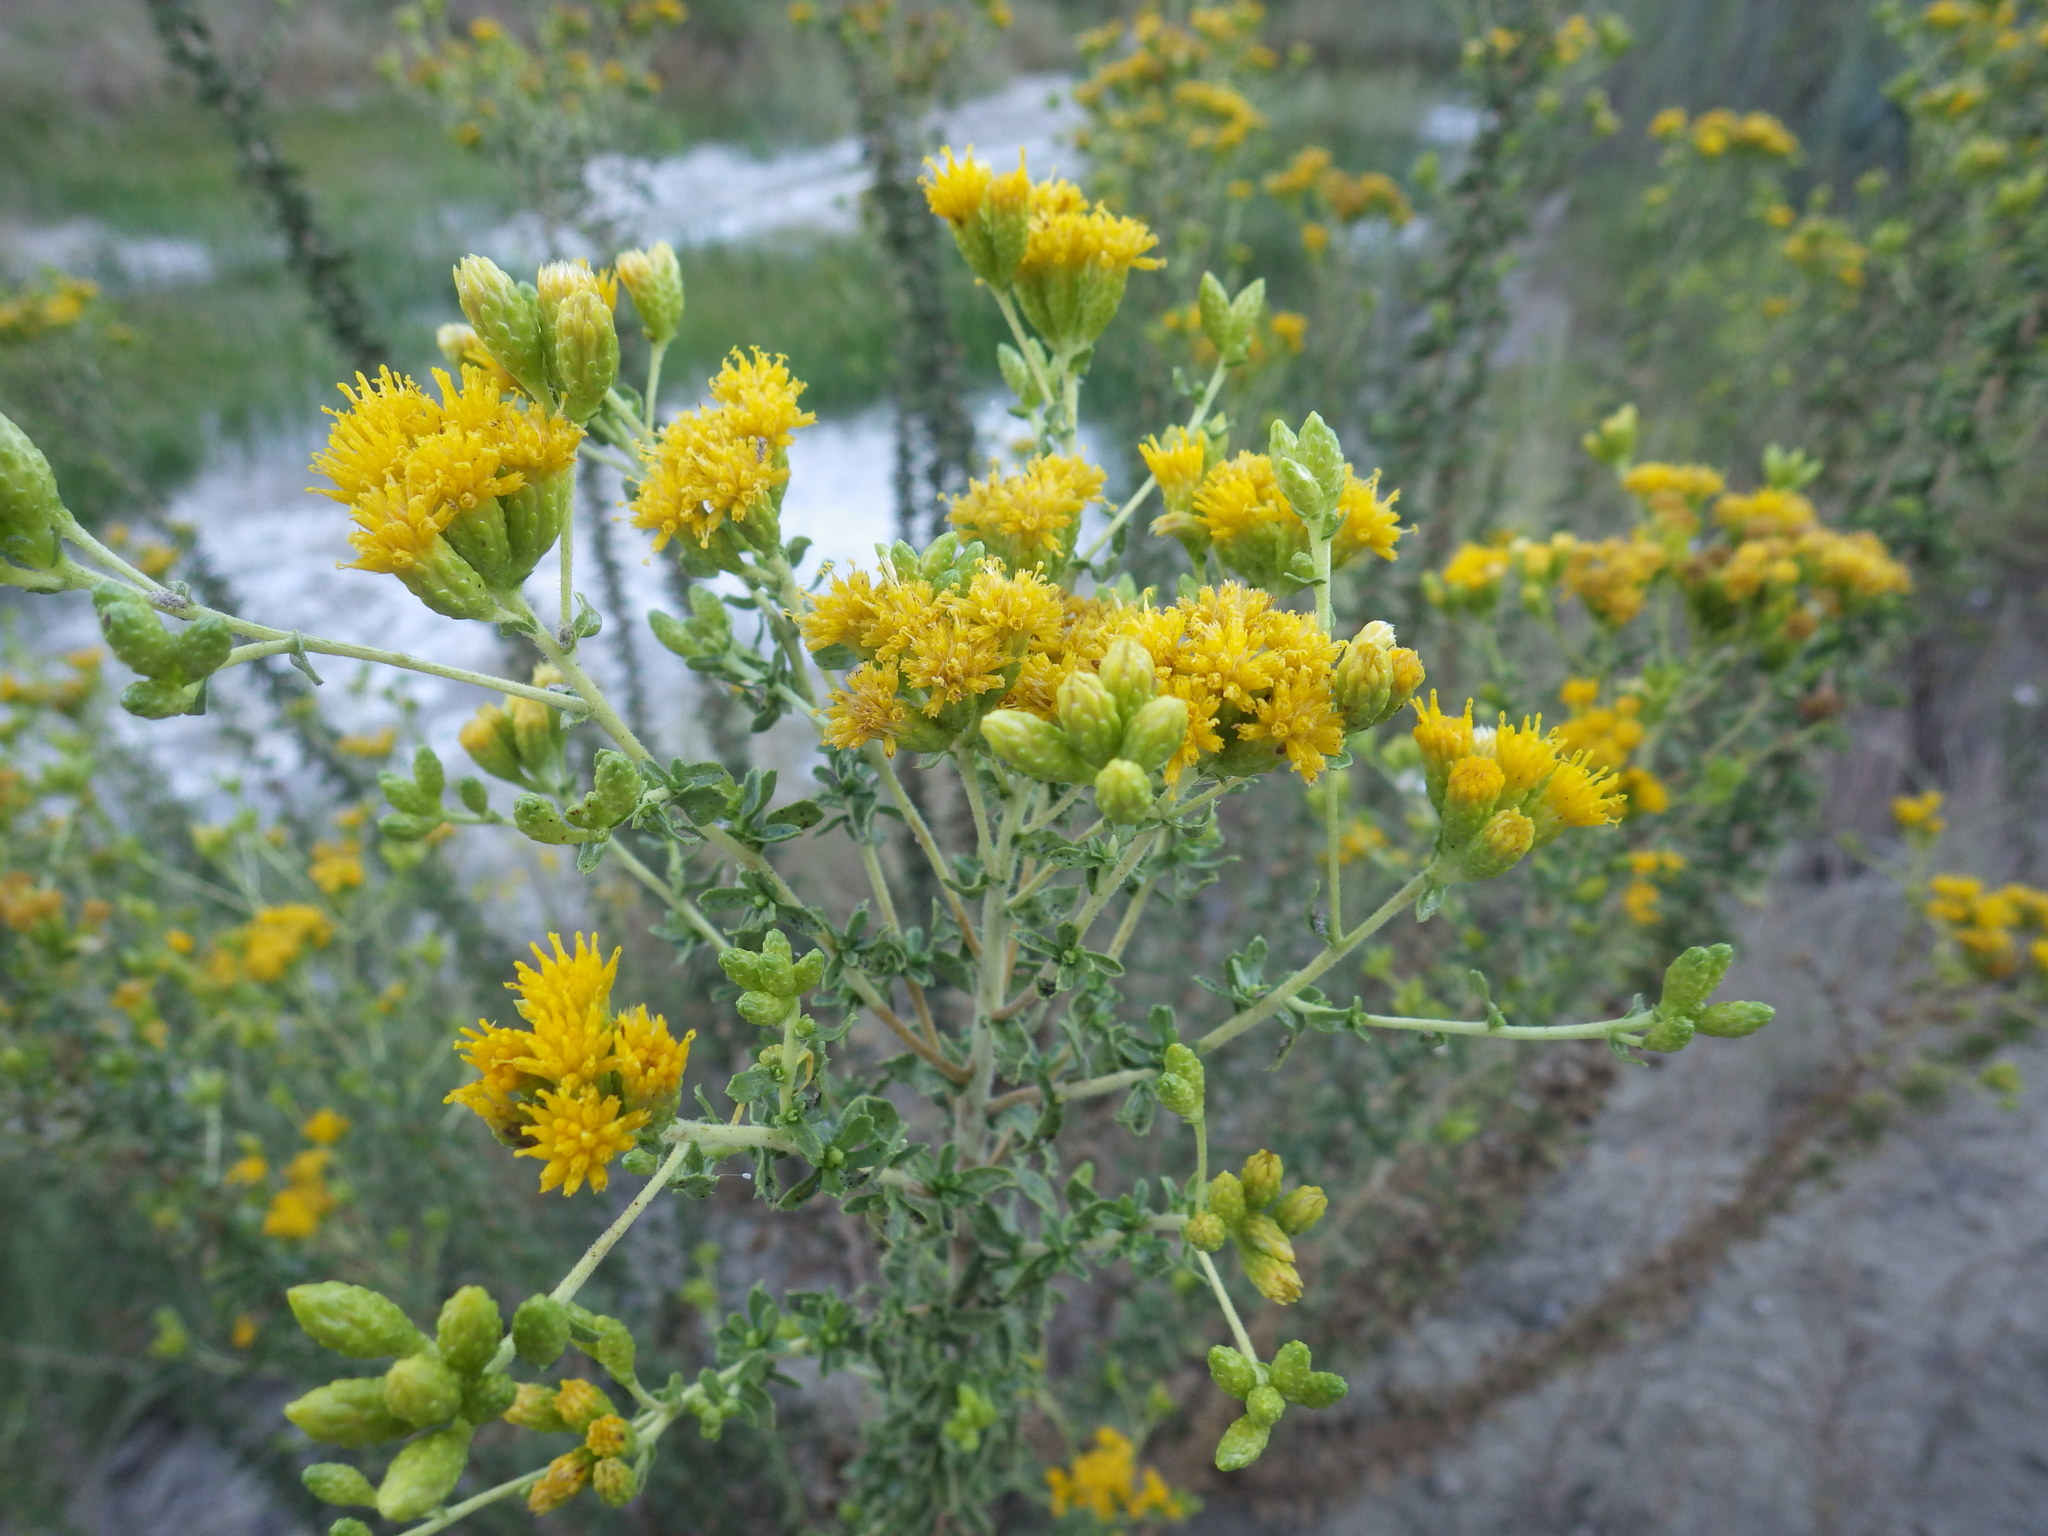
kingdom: Plantae
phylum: Tracheophyta
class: Magnoliopsida
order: Asterales
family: Asteraceae
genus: Isocoma
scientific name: Isocoma menziesii
